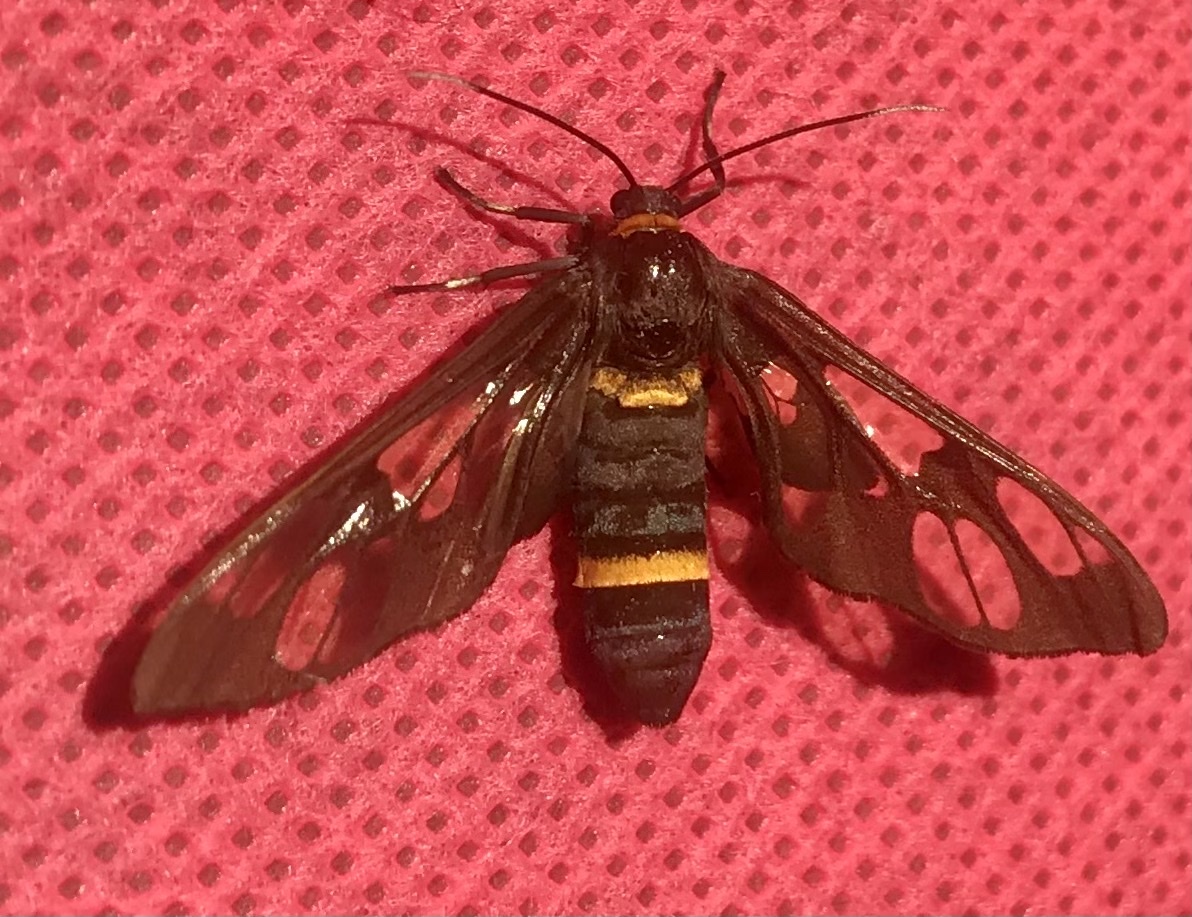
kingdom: Animalia
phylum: Arthropoda
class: Insecta
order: Lepidoptera
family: Erebidae
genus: Syntomoides
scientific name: Syntomoides imaon
